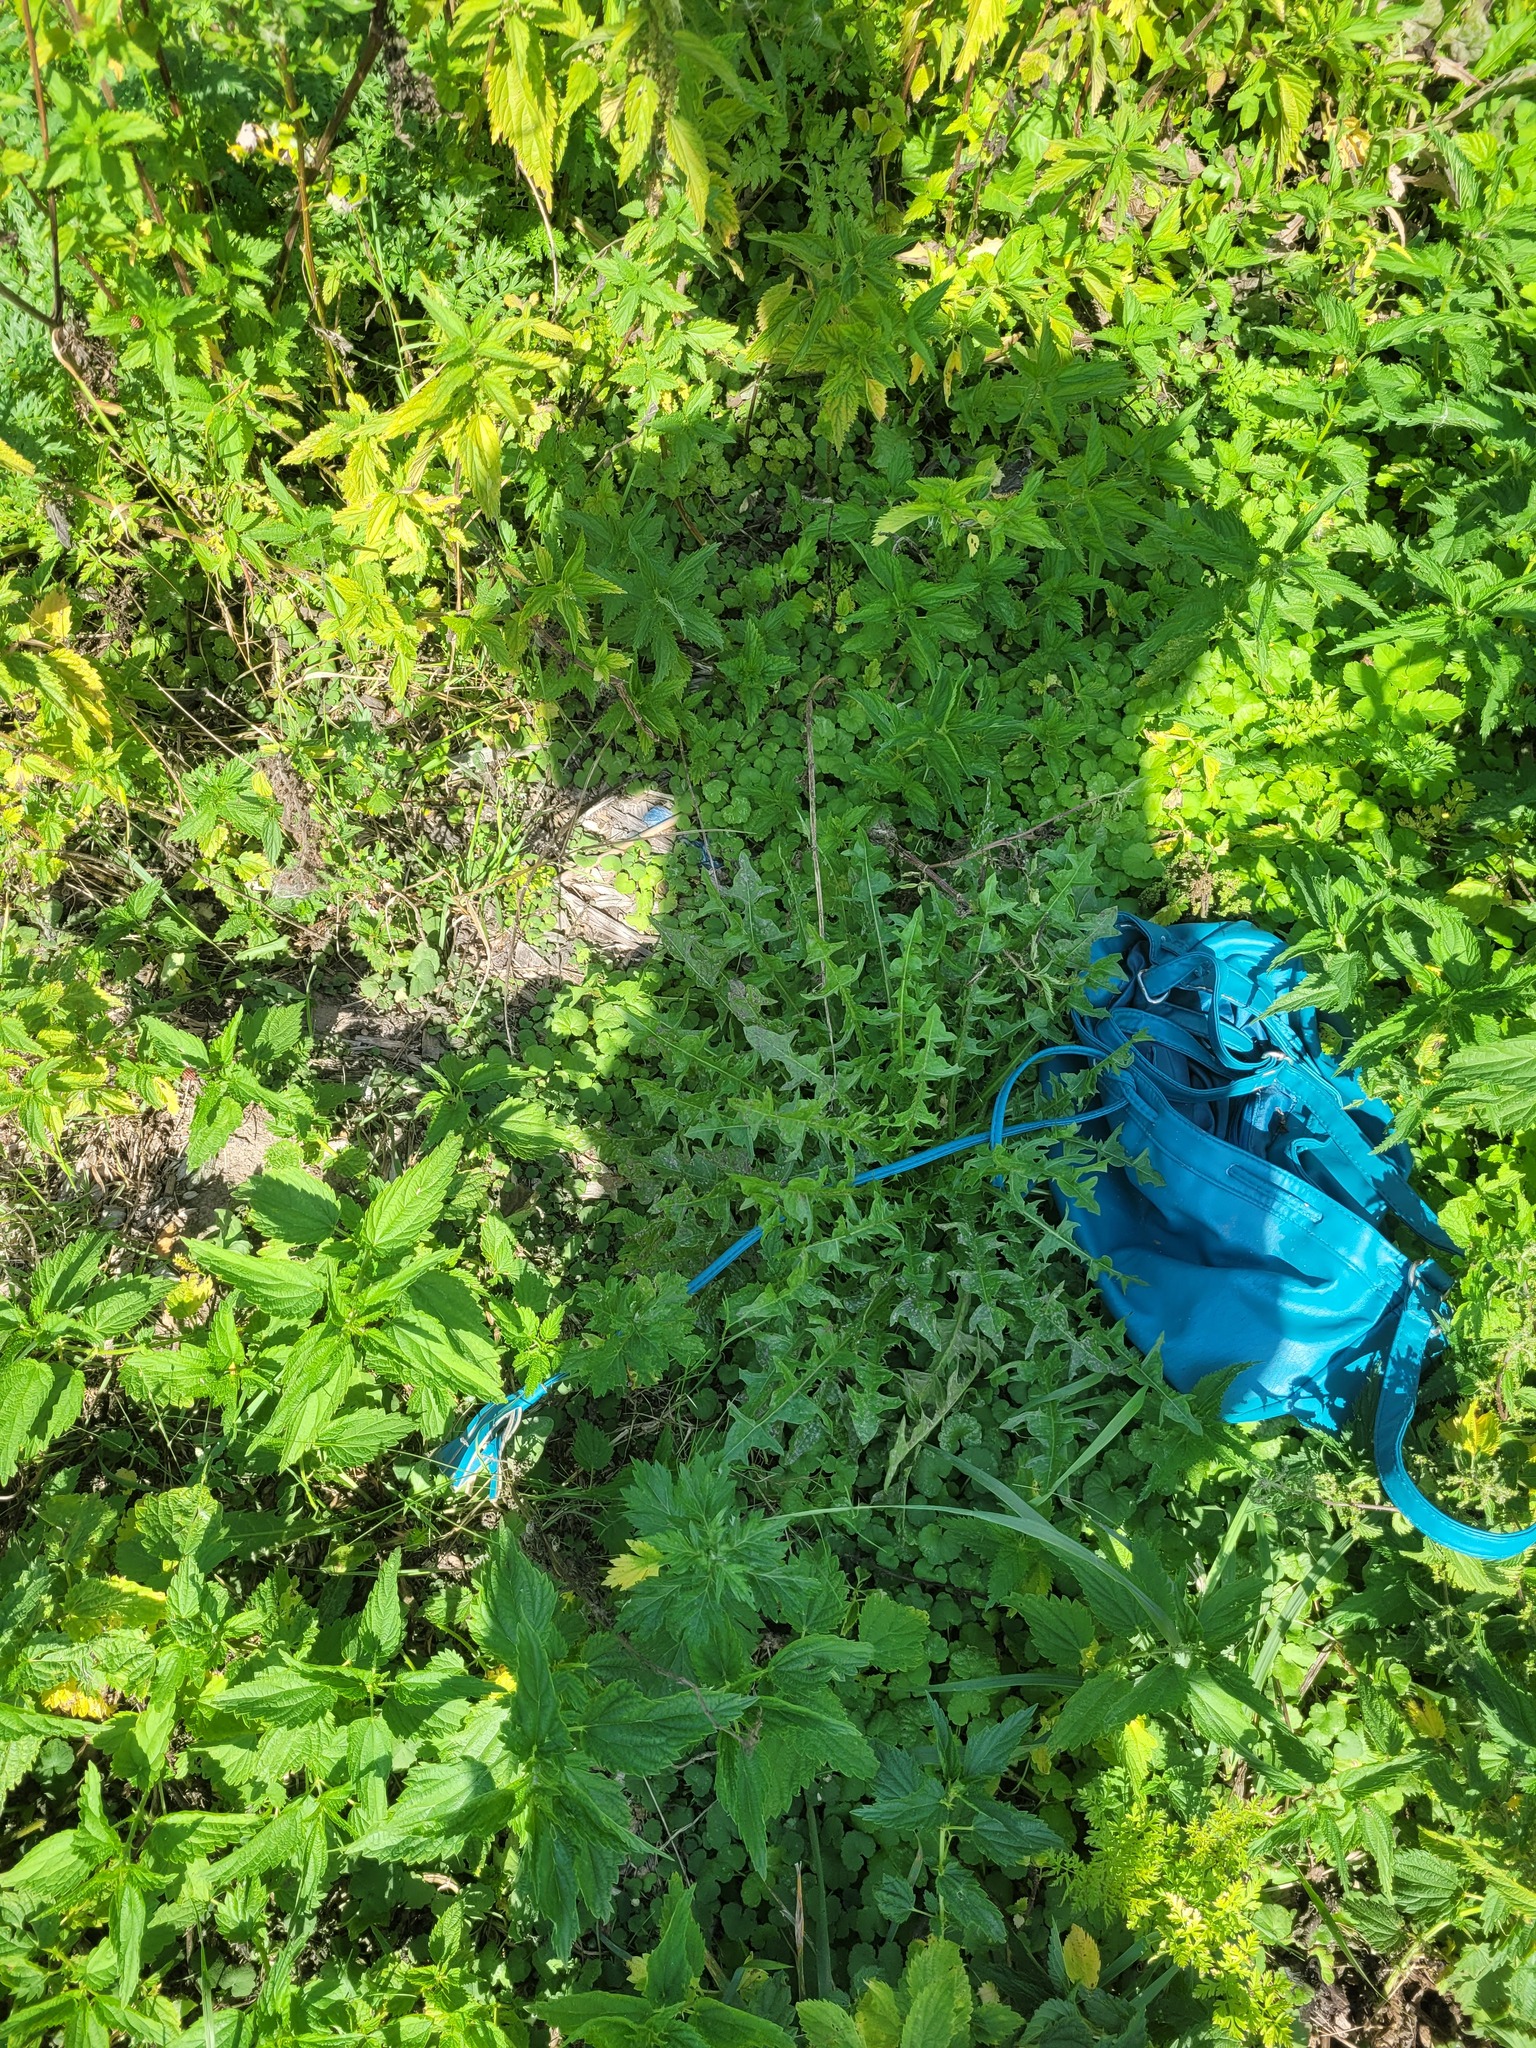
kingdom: Plantae
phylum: Tracheophyta
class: Magnoliopsida
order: Asterales
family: Asteraceae
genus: Taraxacum
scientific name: Taraxacum officinale
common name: Common dandelion
